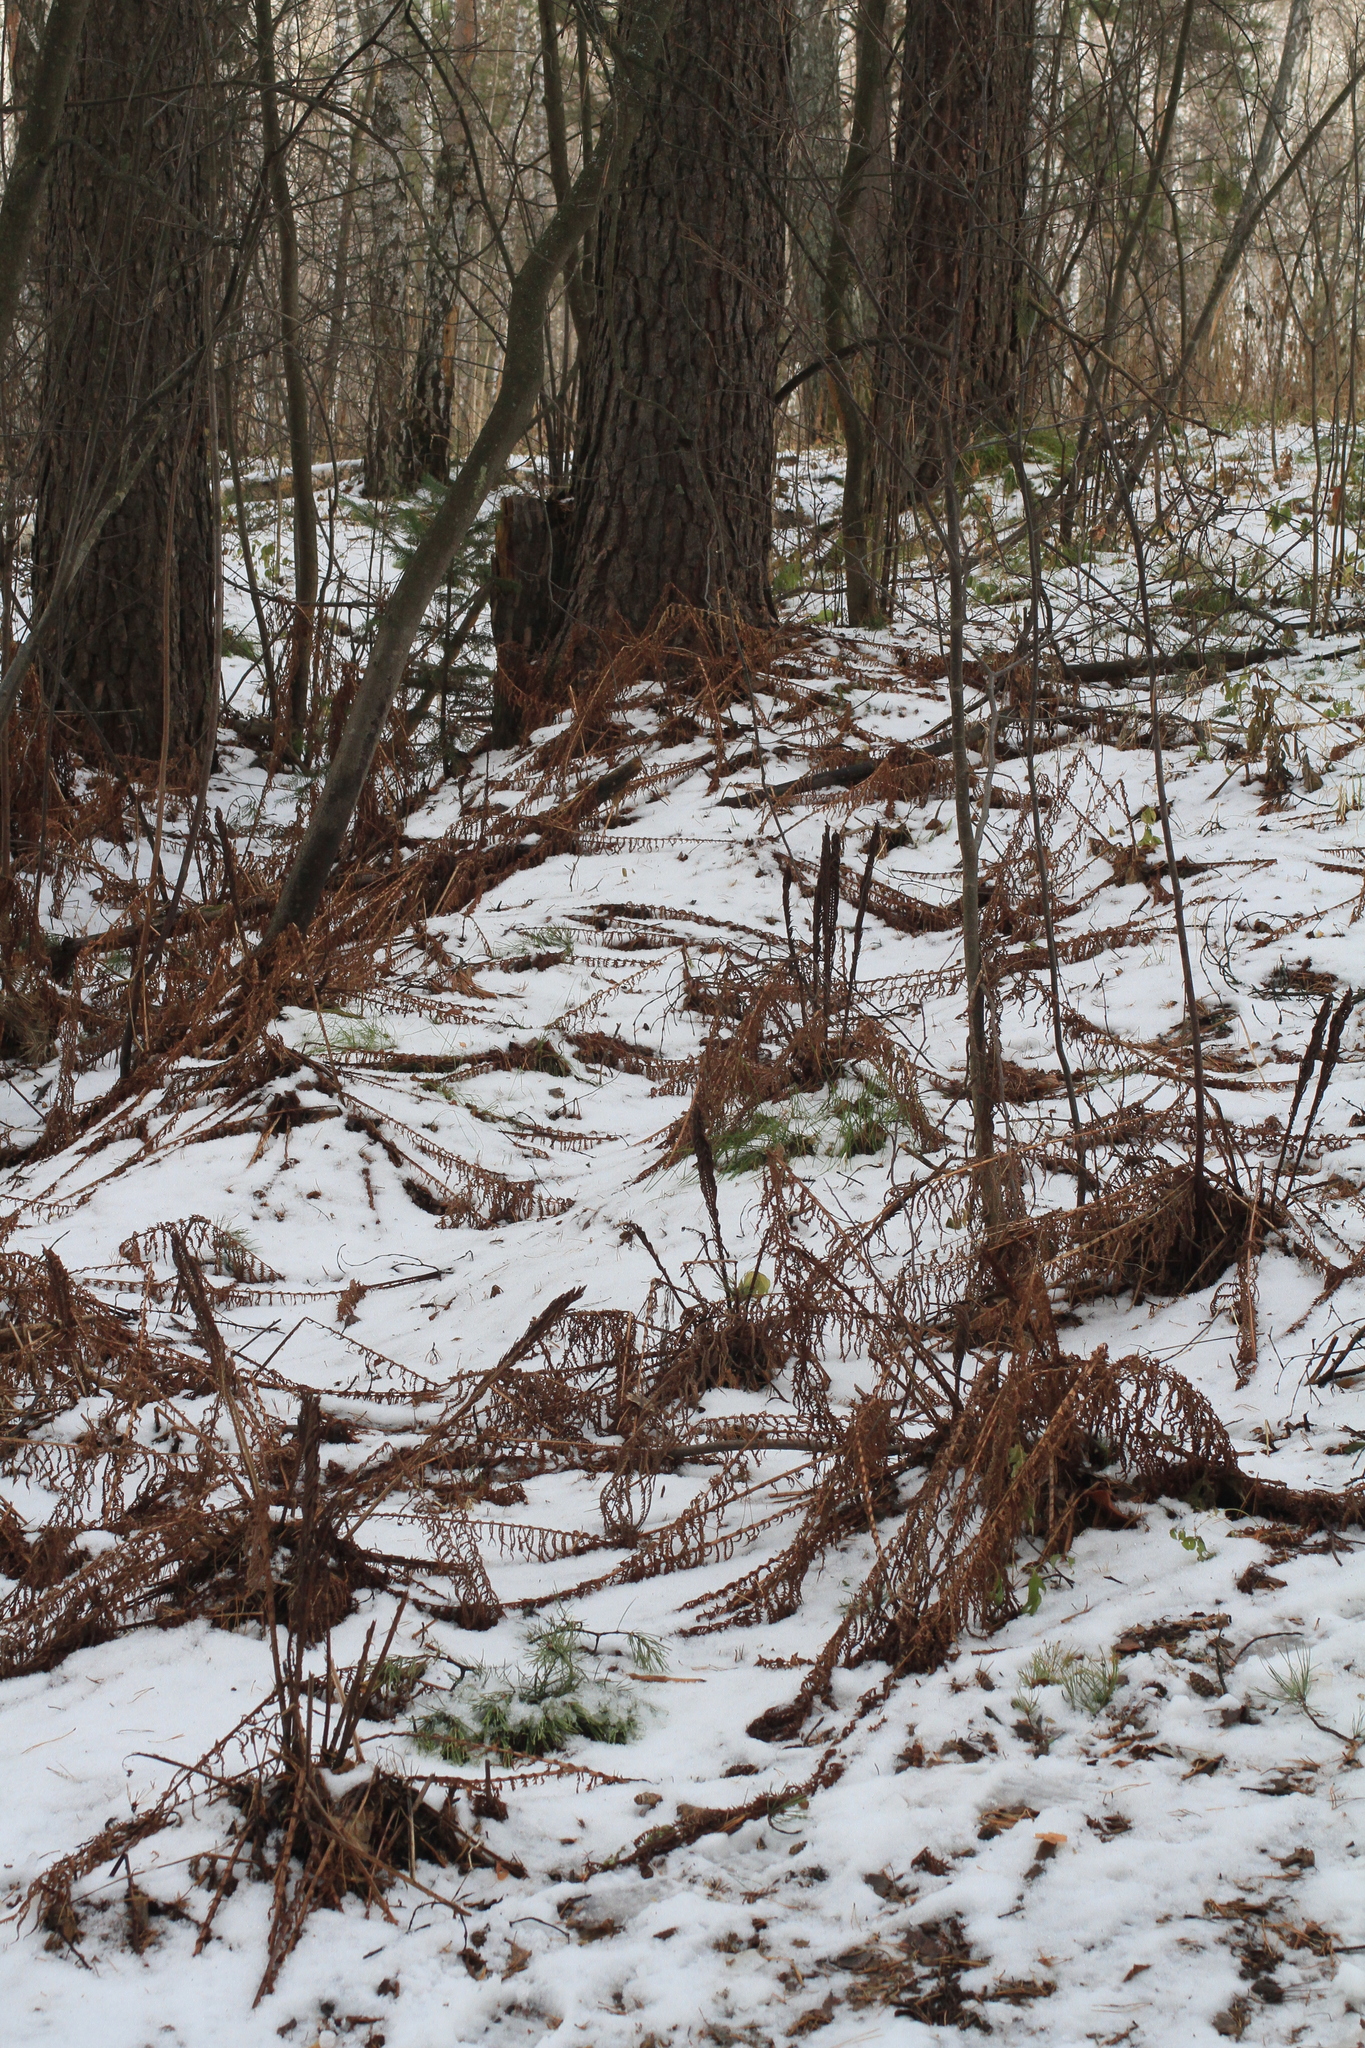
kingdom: Plantae
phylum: Tracheophyta
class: Polypodiopsida
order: Polypodiales
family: Onocleaceae
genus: Matteuccia
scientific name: Matteuccia struthiopteris
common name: Ostrich fern
